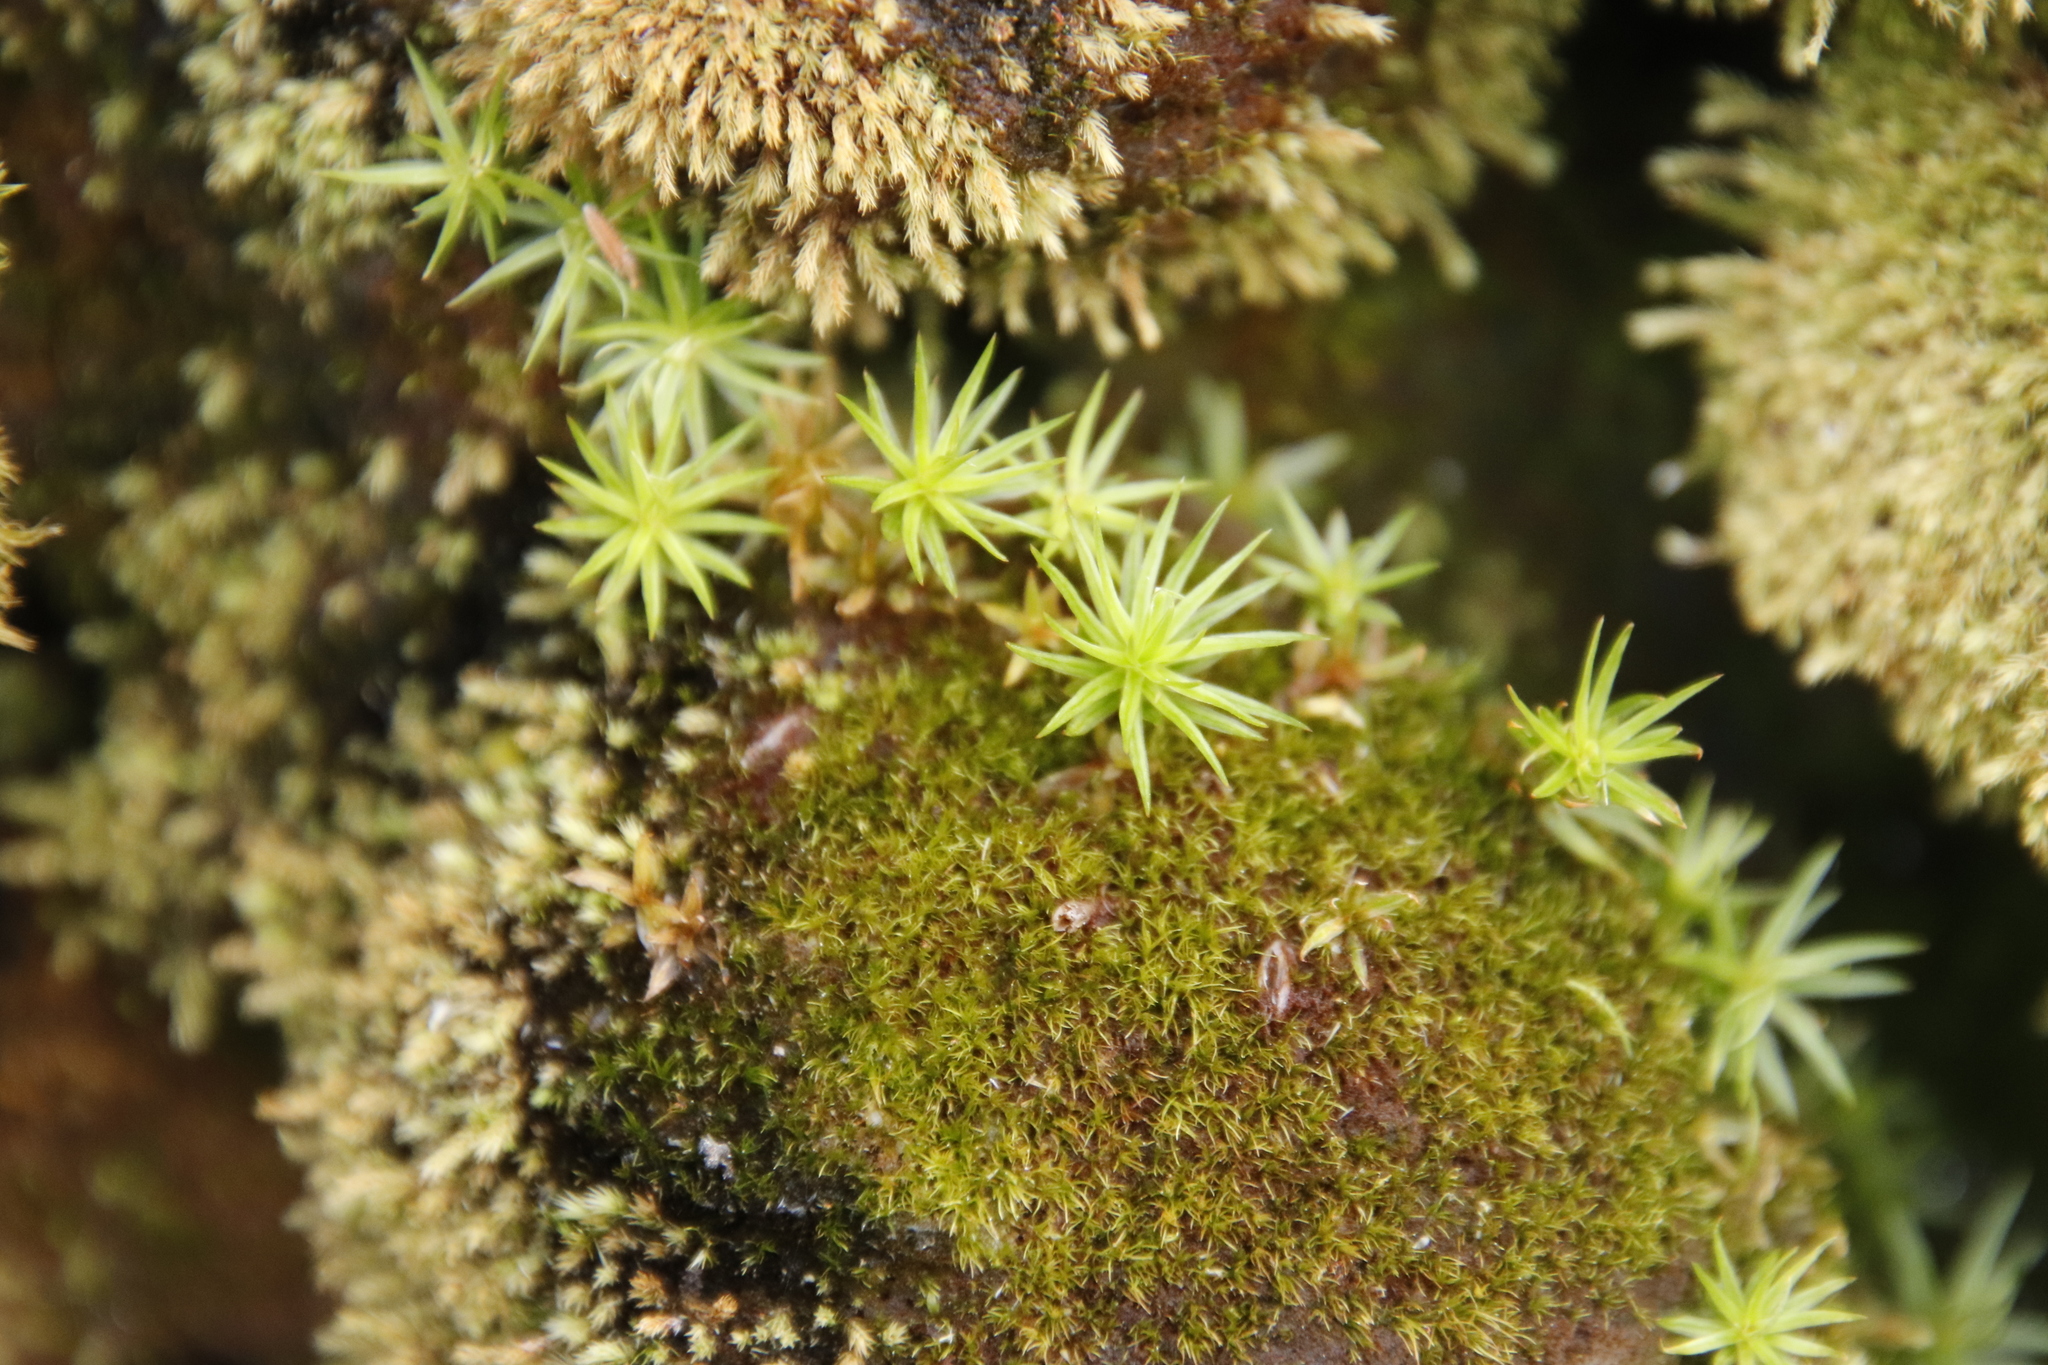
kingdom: Plantae
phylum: Bryophyta
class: Polytrichopsida
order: Polytrichales
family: Polytrichaceae
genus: Polytrichum
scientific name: Polytrichum subpilosum
